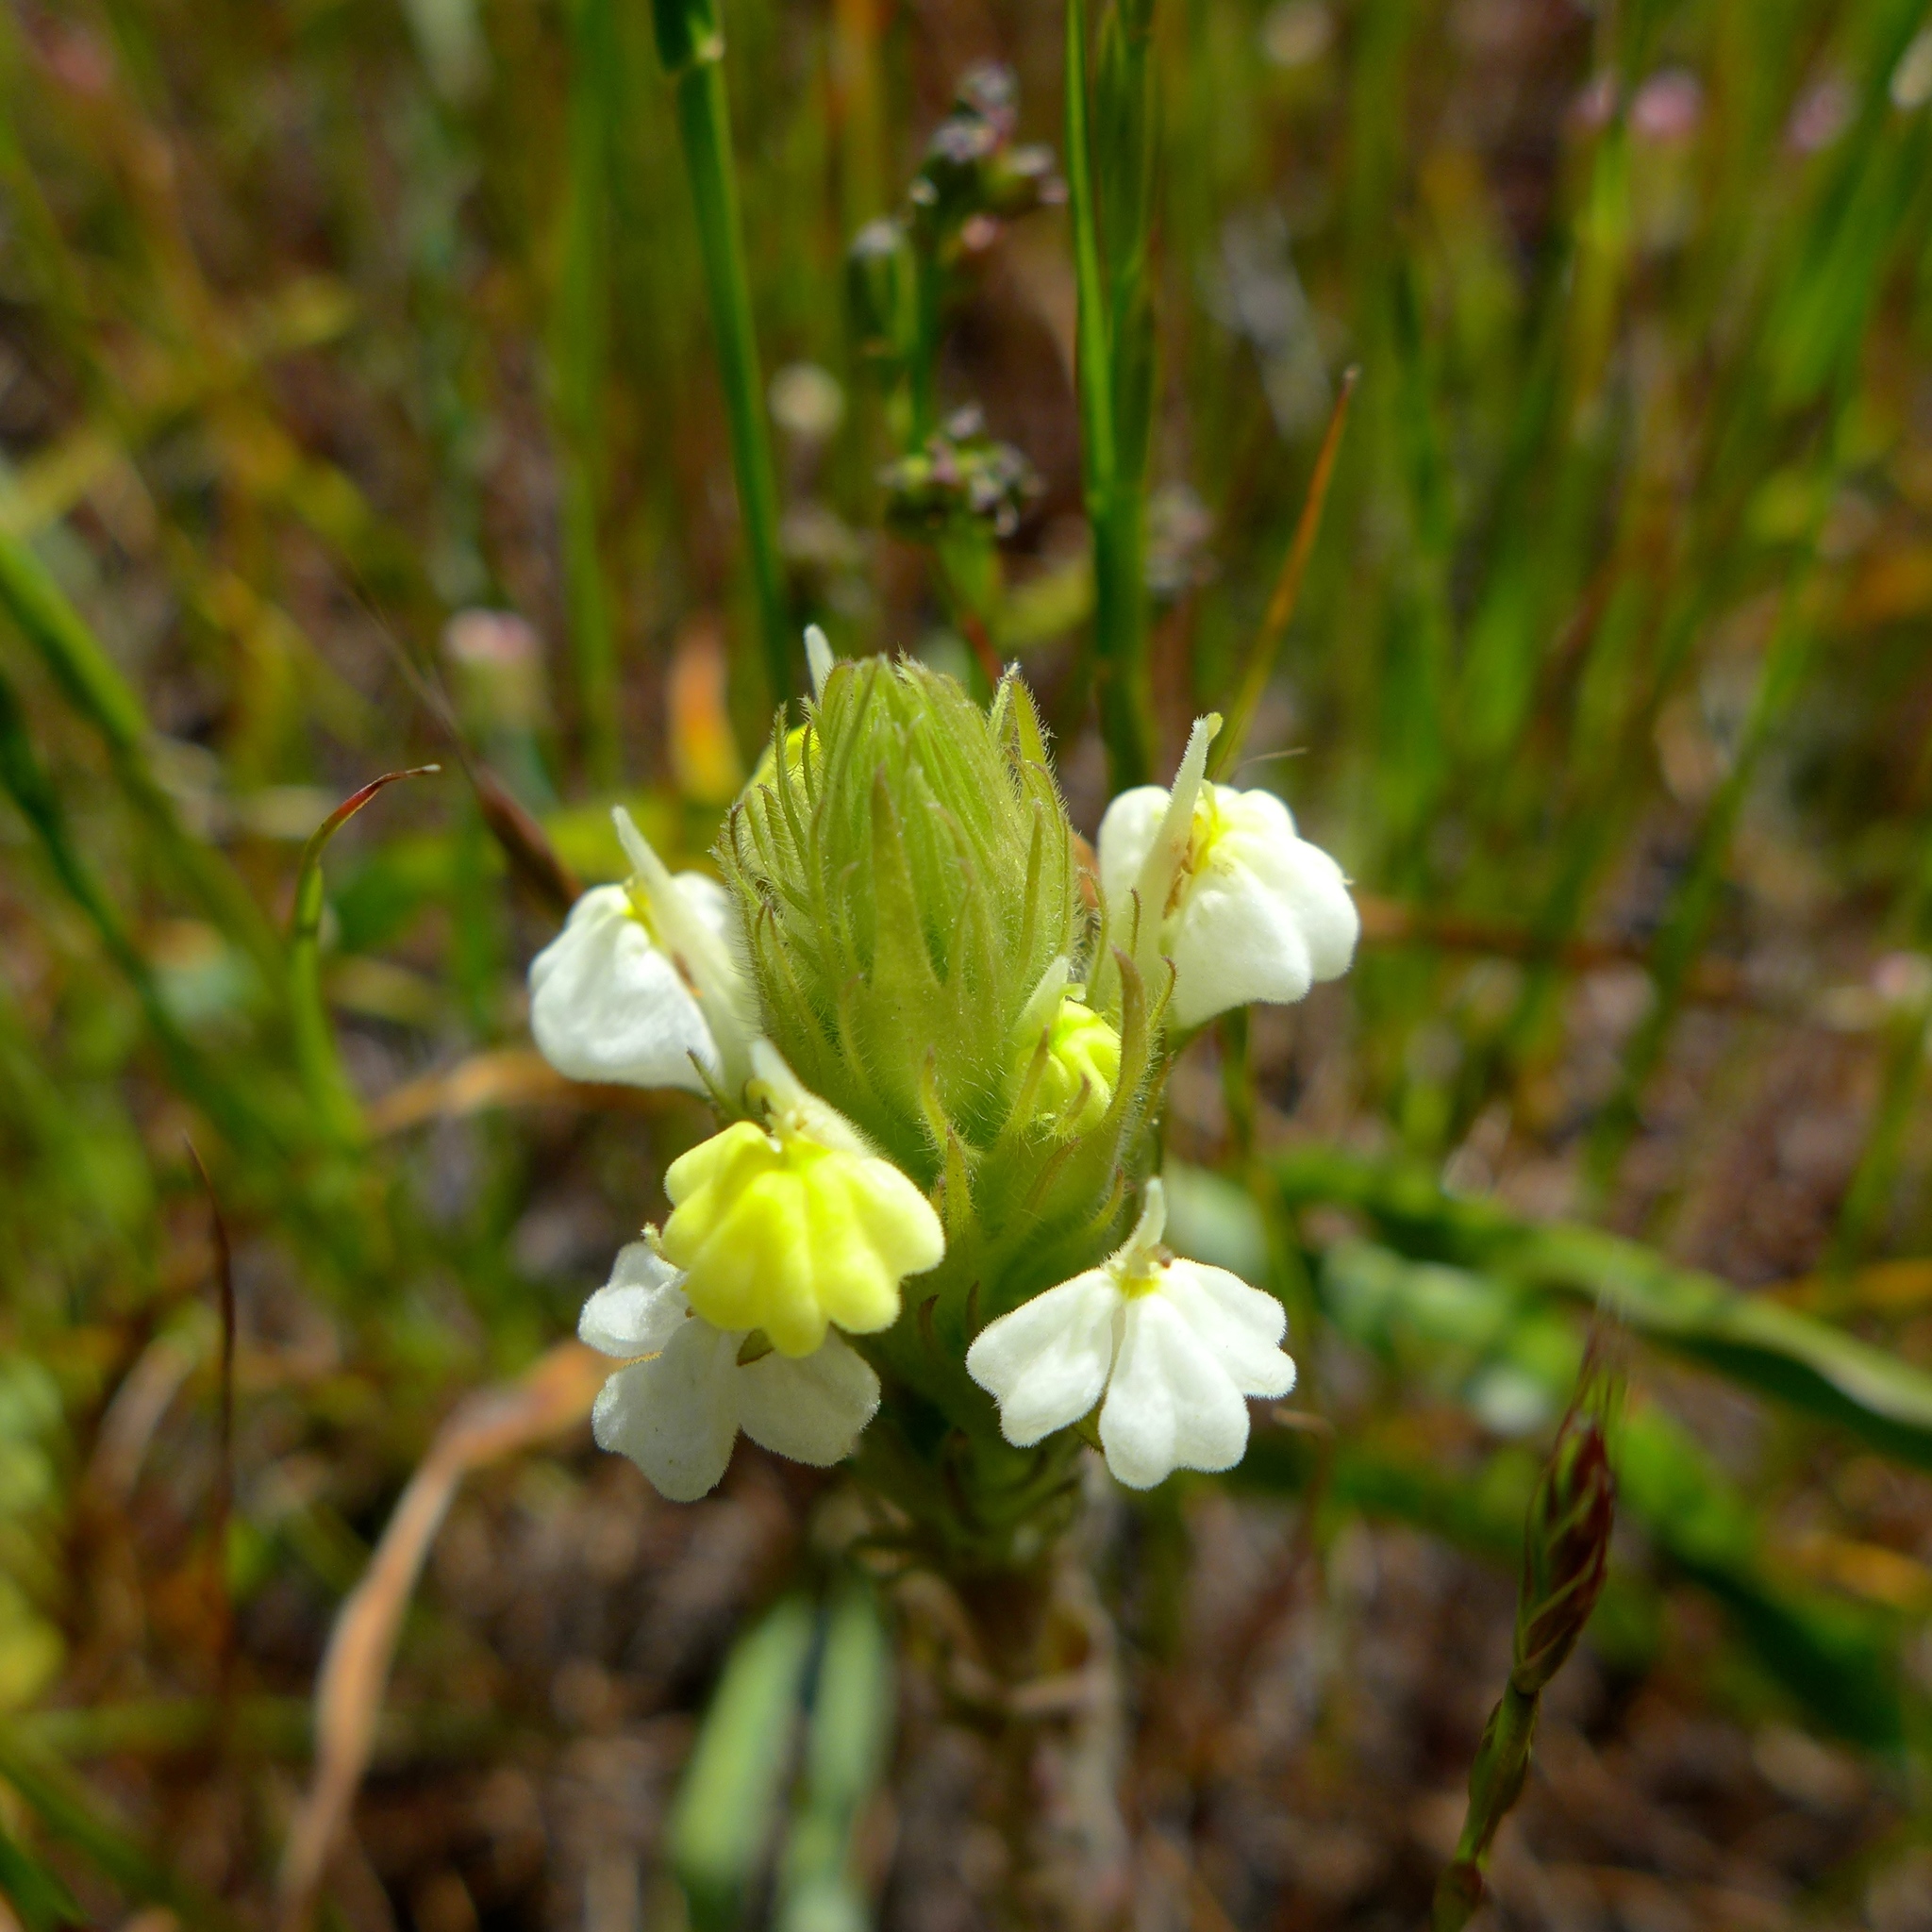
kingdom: Plantae
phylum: Tracheophyta
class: Magnoliopsida
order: Lamiales
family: Orobanchaceae
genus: Castilleja
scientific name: Castilleja rubicundula
